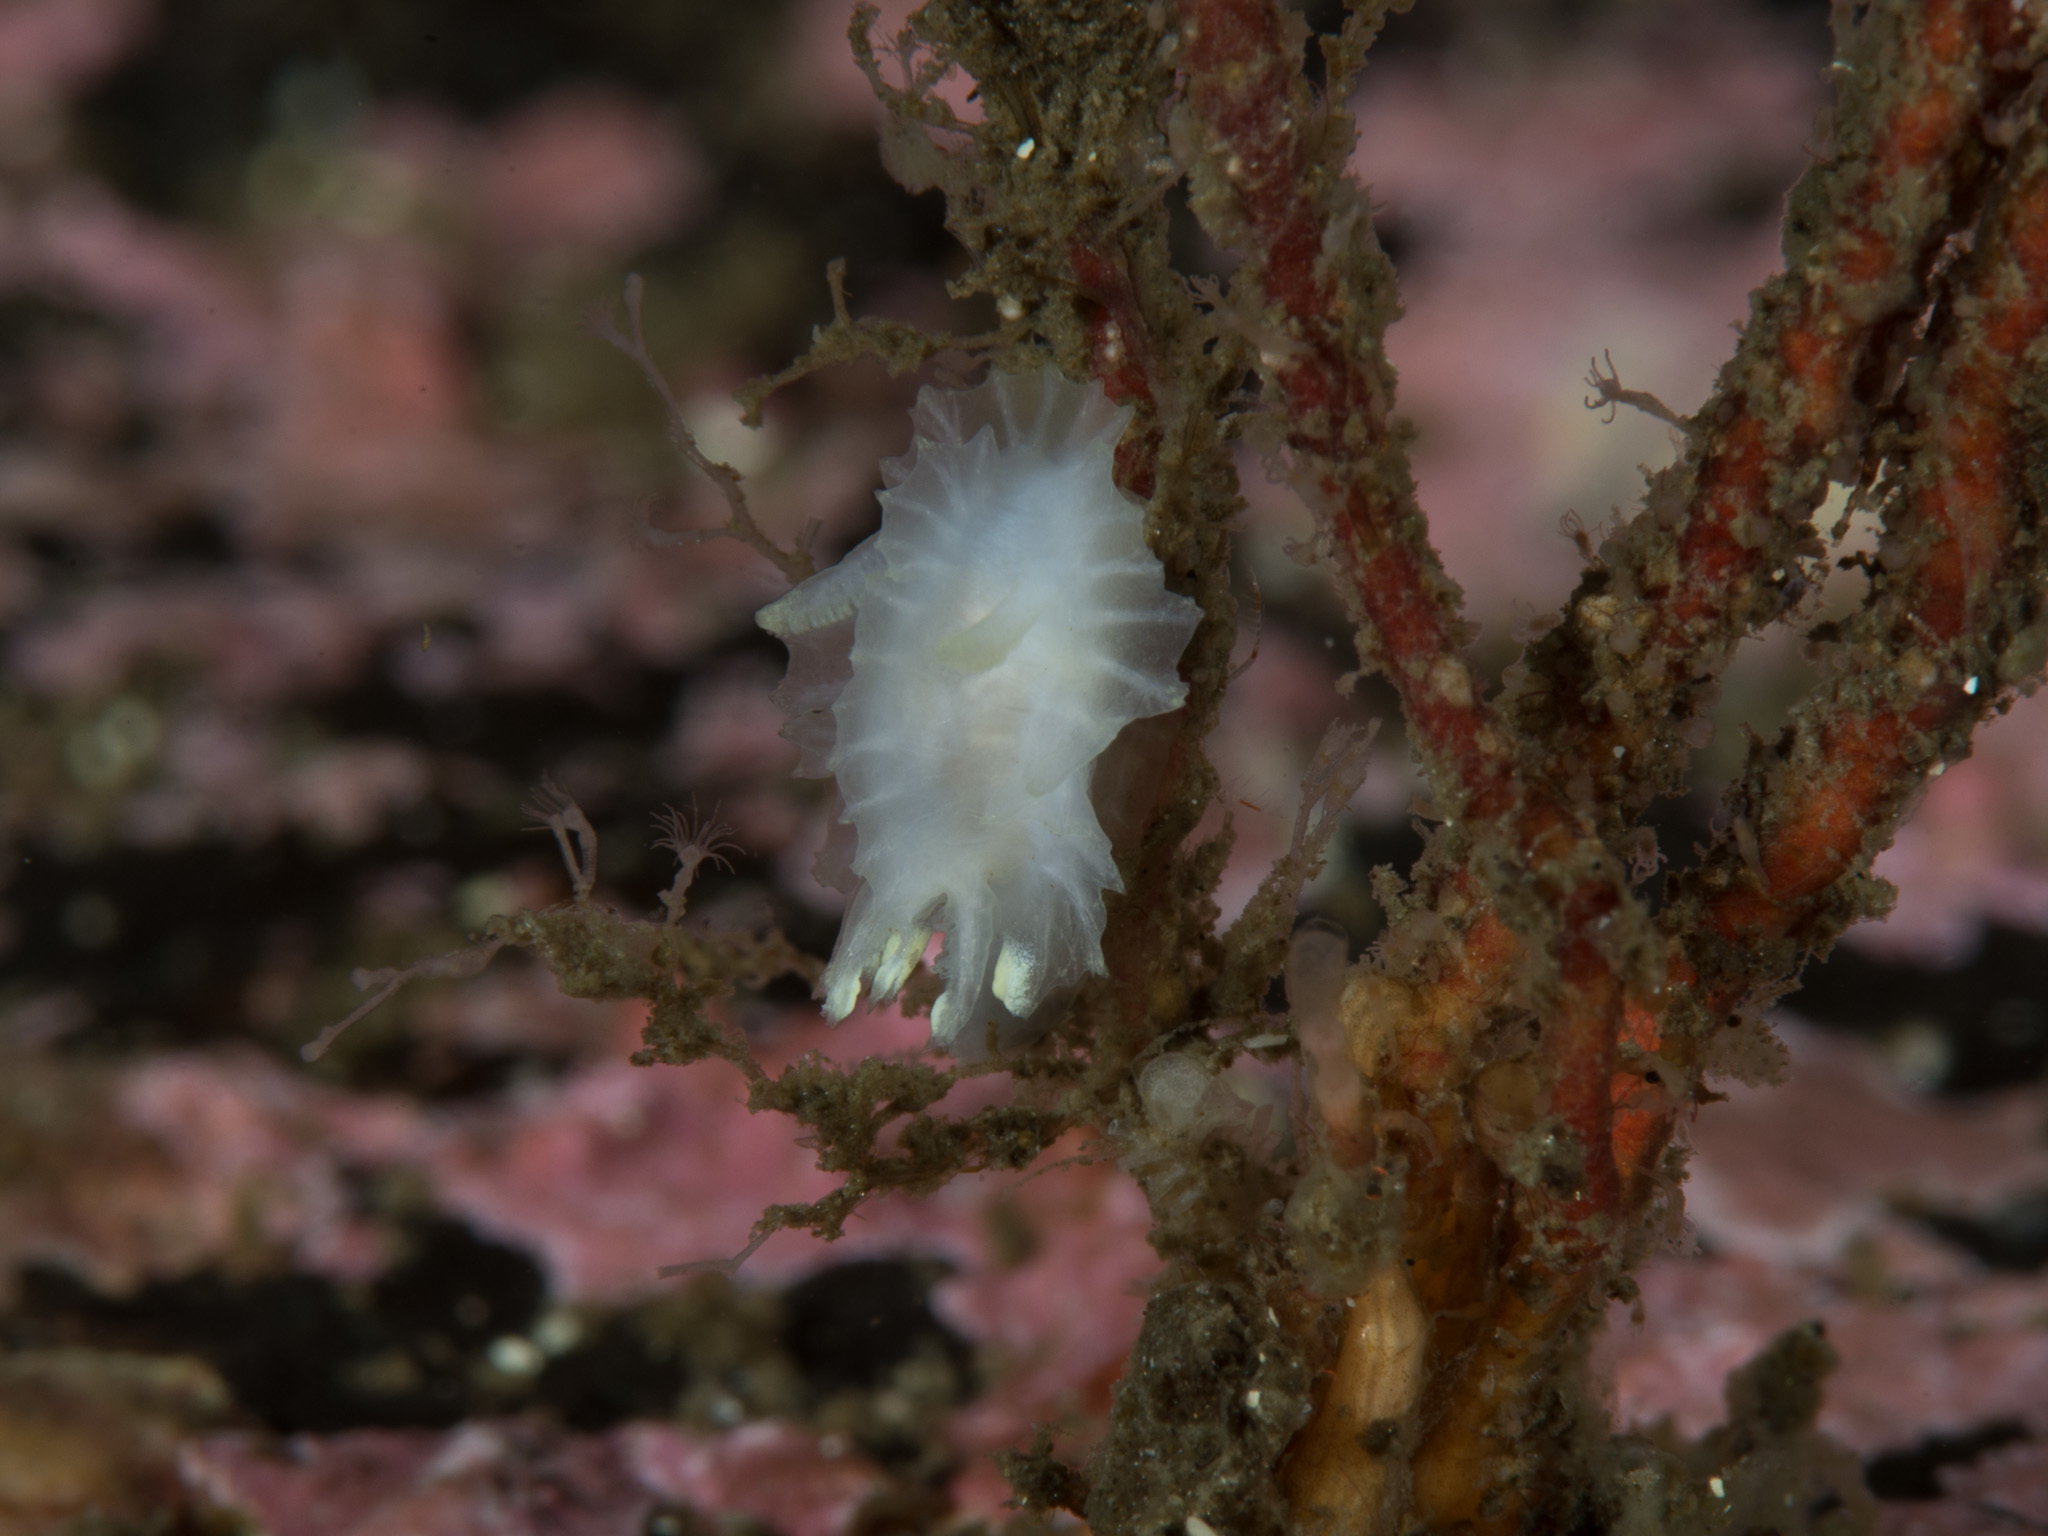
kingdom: Animalia
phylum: Mollusca
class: Gastropoda
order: Nudibranchia
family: Goniodorididae
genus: Lophodoris
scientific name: Lophodoris danielsseni
